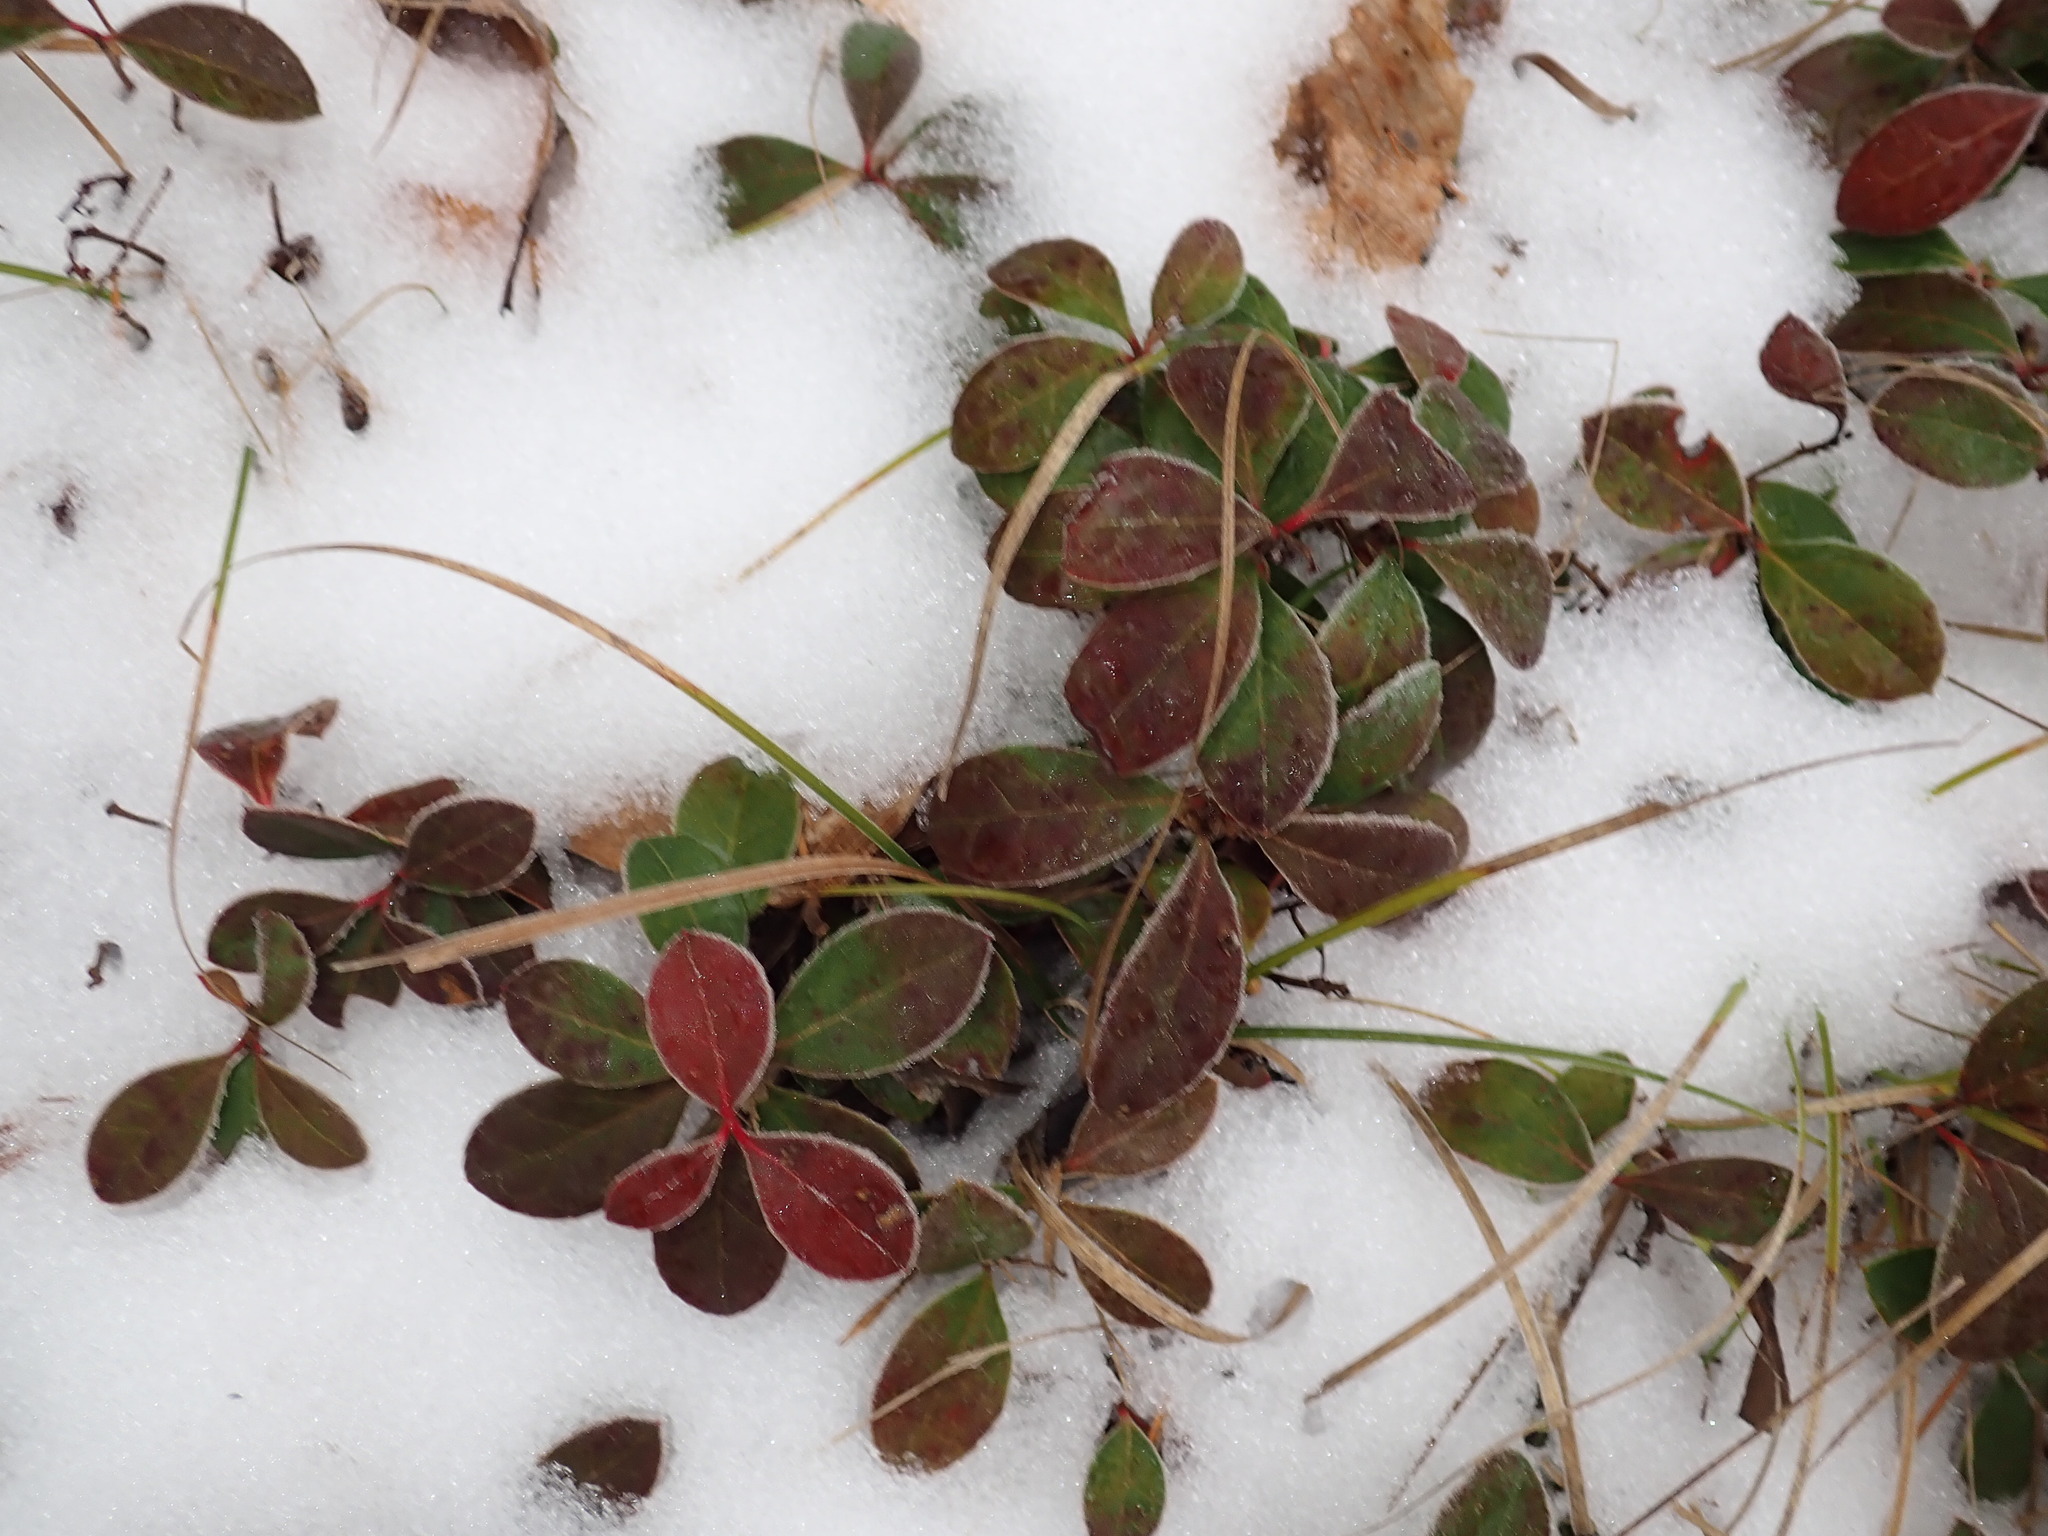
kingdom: Plantae
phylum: Tracheophyta
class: Magnoliopsida
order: Ericales
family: Ericaceae
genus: Gaultheria
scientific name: Gaultheria procumbens
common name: Checkerberry
